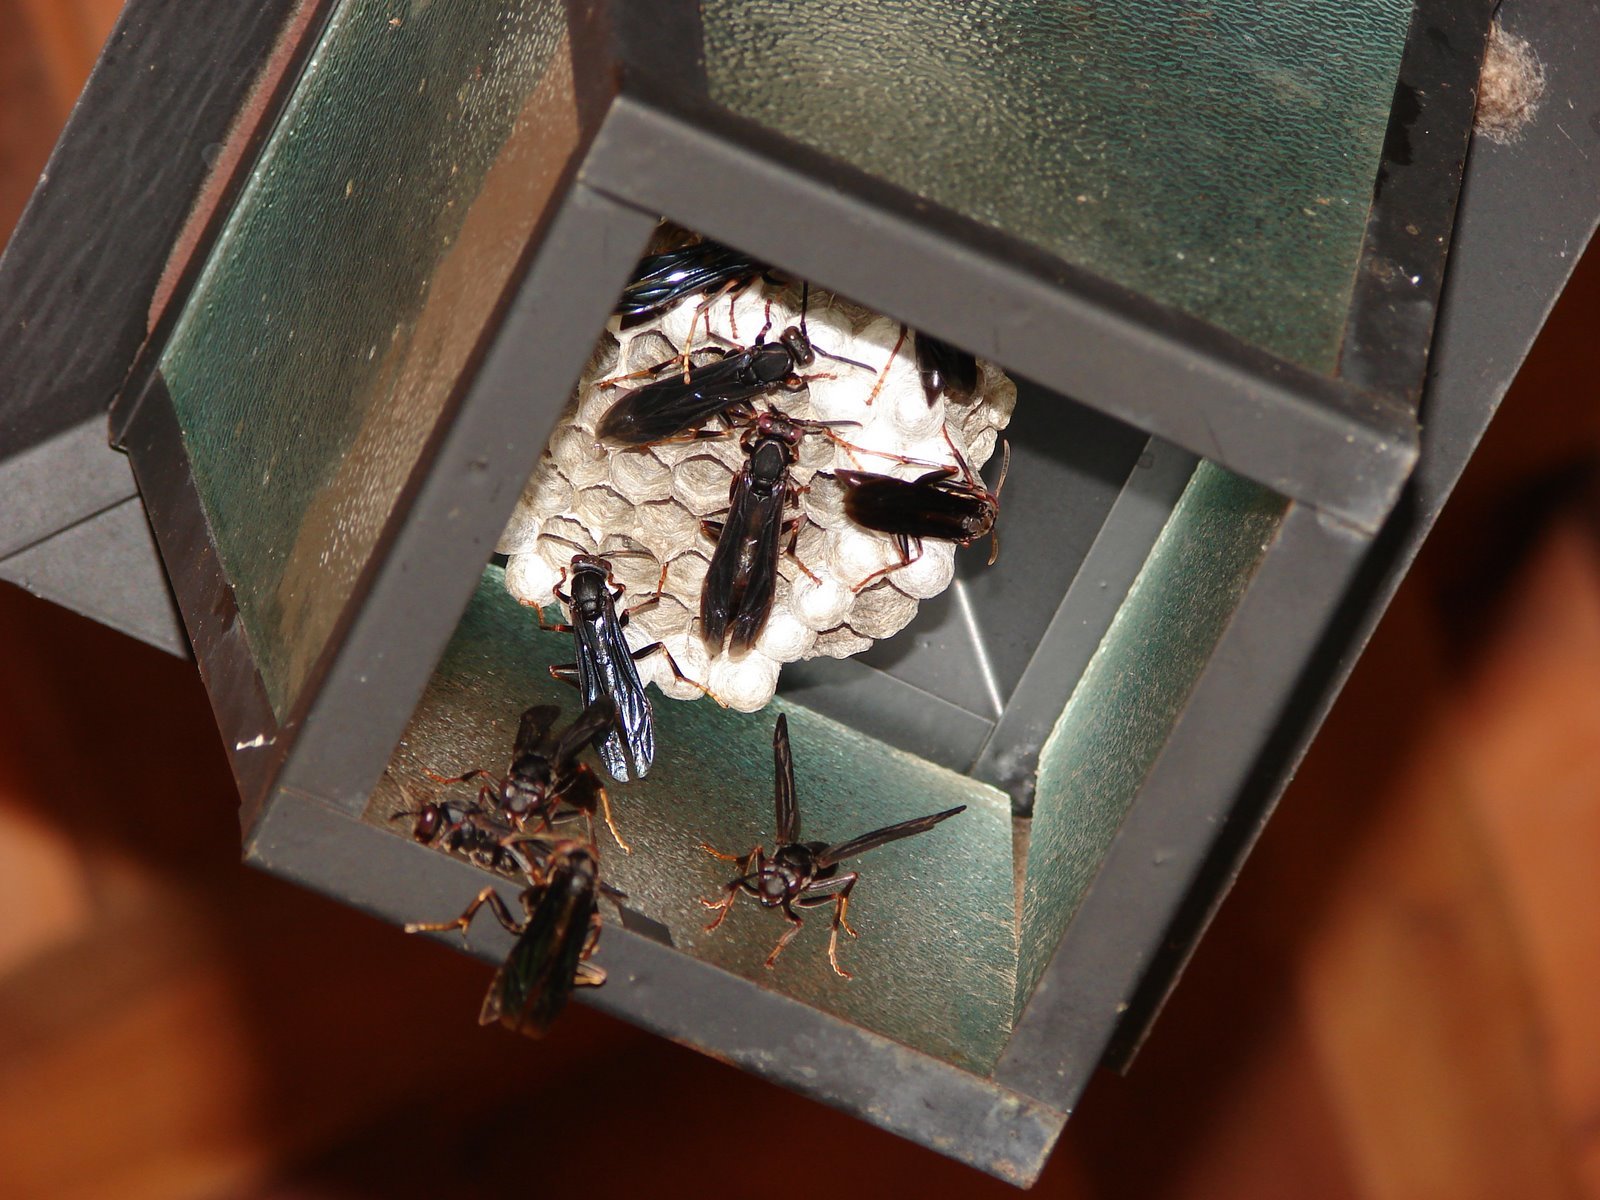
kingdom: Animalia
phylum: Arthropoda
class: Insecta
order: Hymenoptera
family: Eumenidae
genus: Polistes
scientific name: Polistes satan
